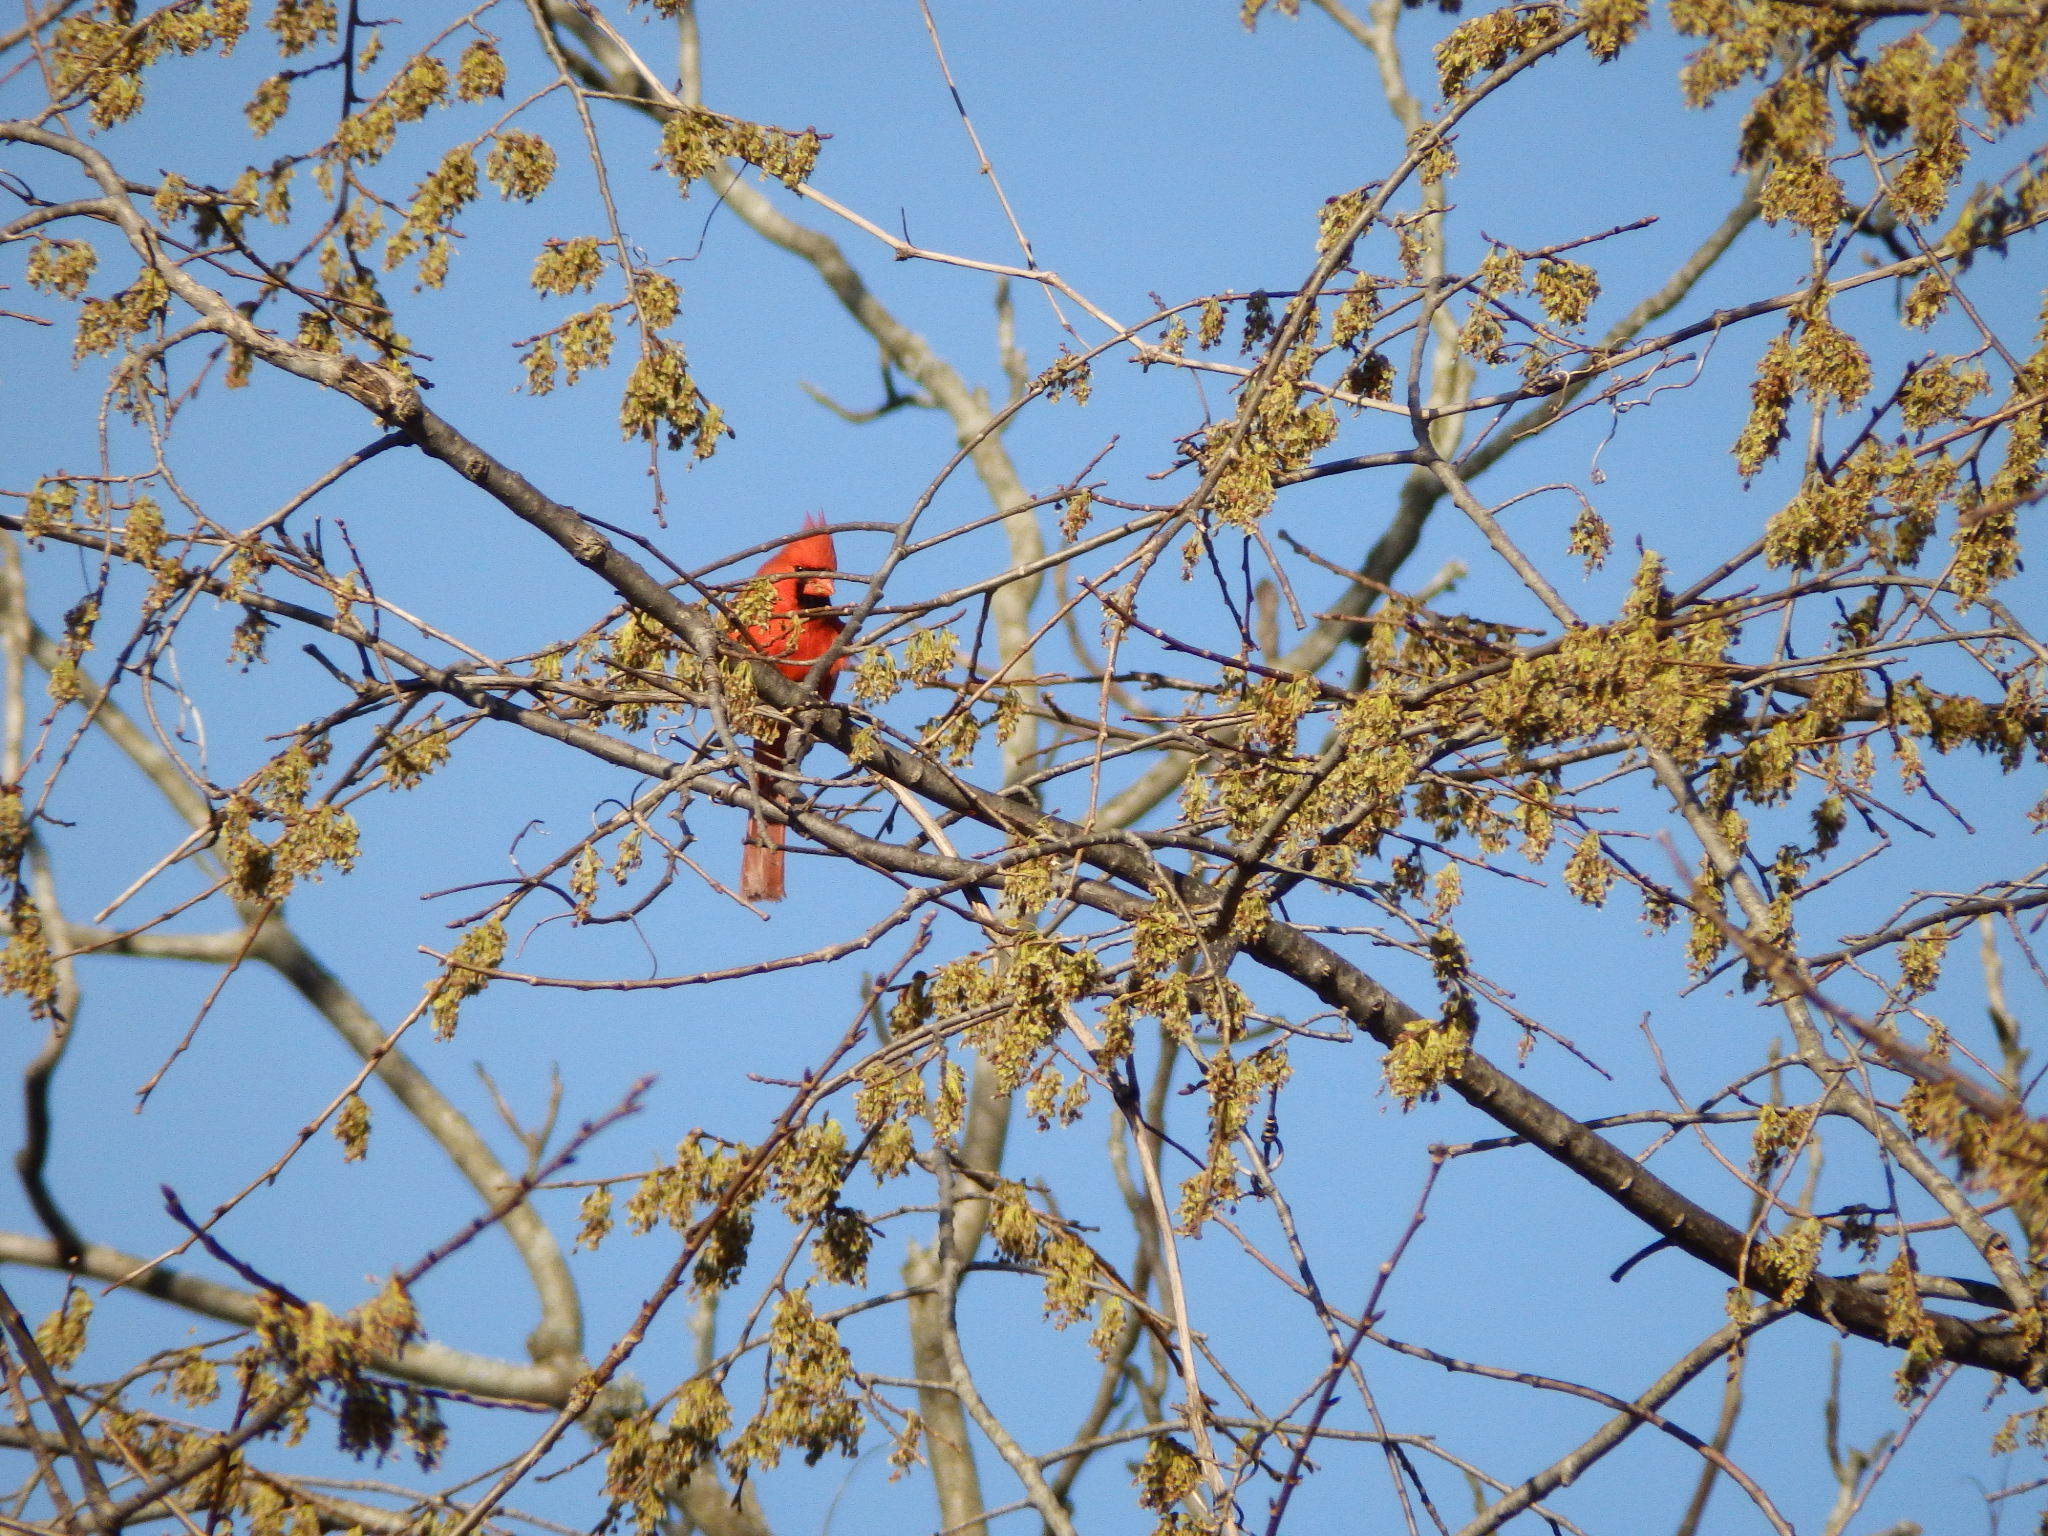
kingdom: Animalia
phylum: Chordata
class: Aves
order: Passeriformes
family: Cardinalidae
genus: Cardinalis
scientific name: Cardinalis cardinalis
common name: Northern cardinal
